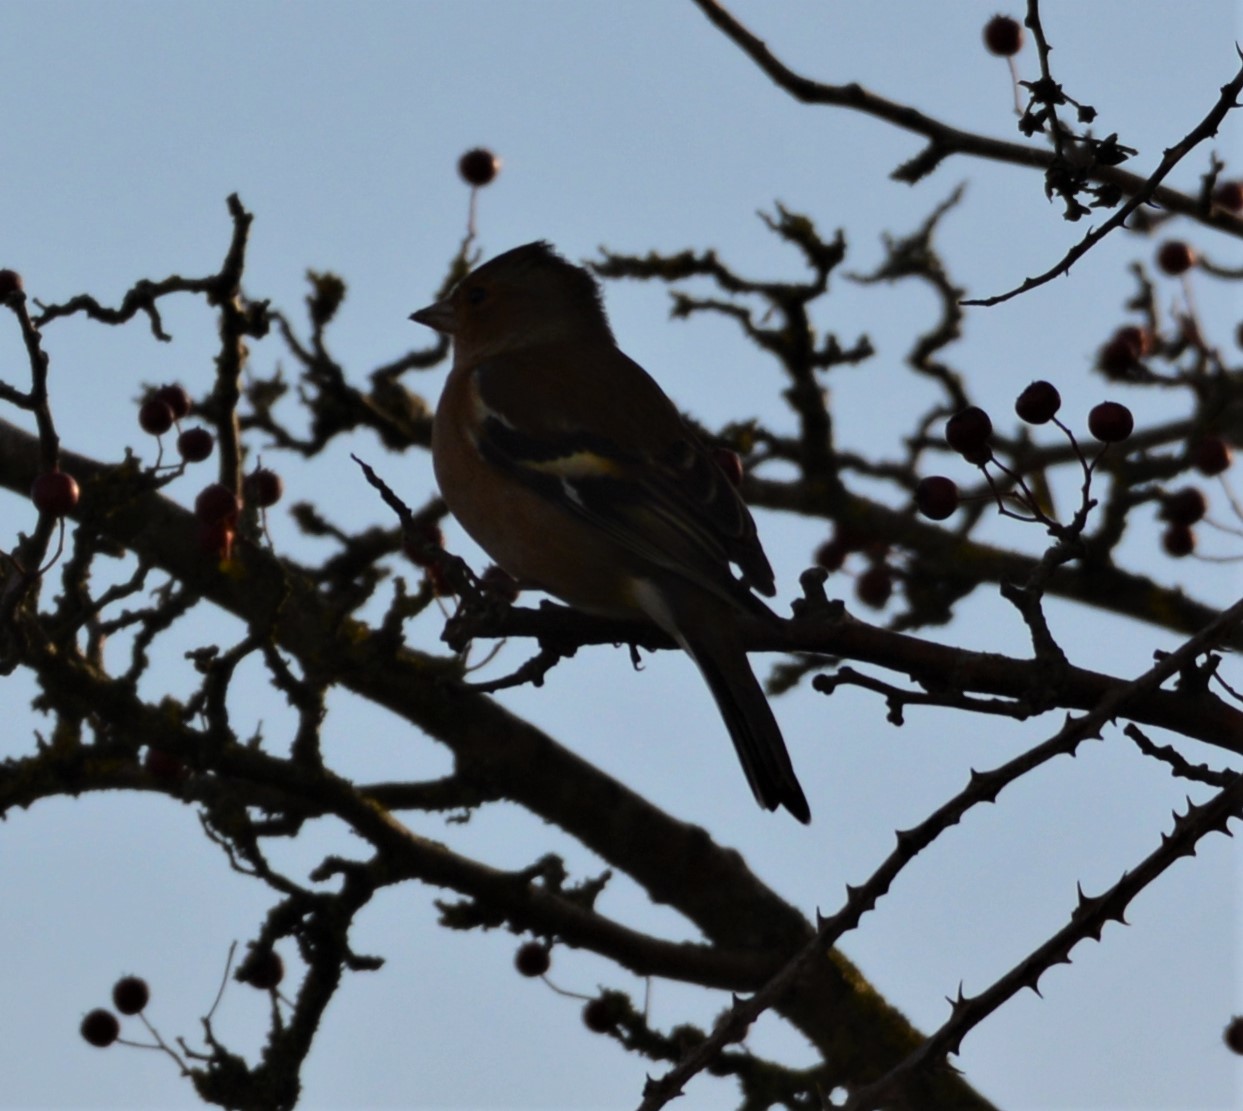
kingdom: Animalia
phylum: Chordata
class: Aves
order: Passeriformes
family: Fringillidae
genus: Fringilla
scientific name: Fringilla coelebs
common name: Common chaffinch
